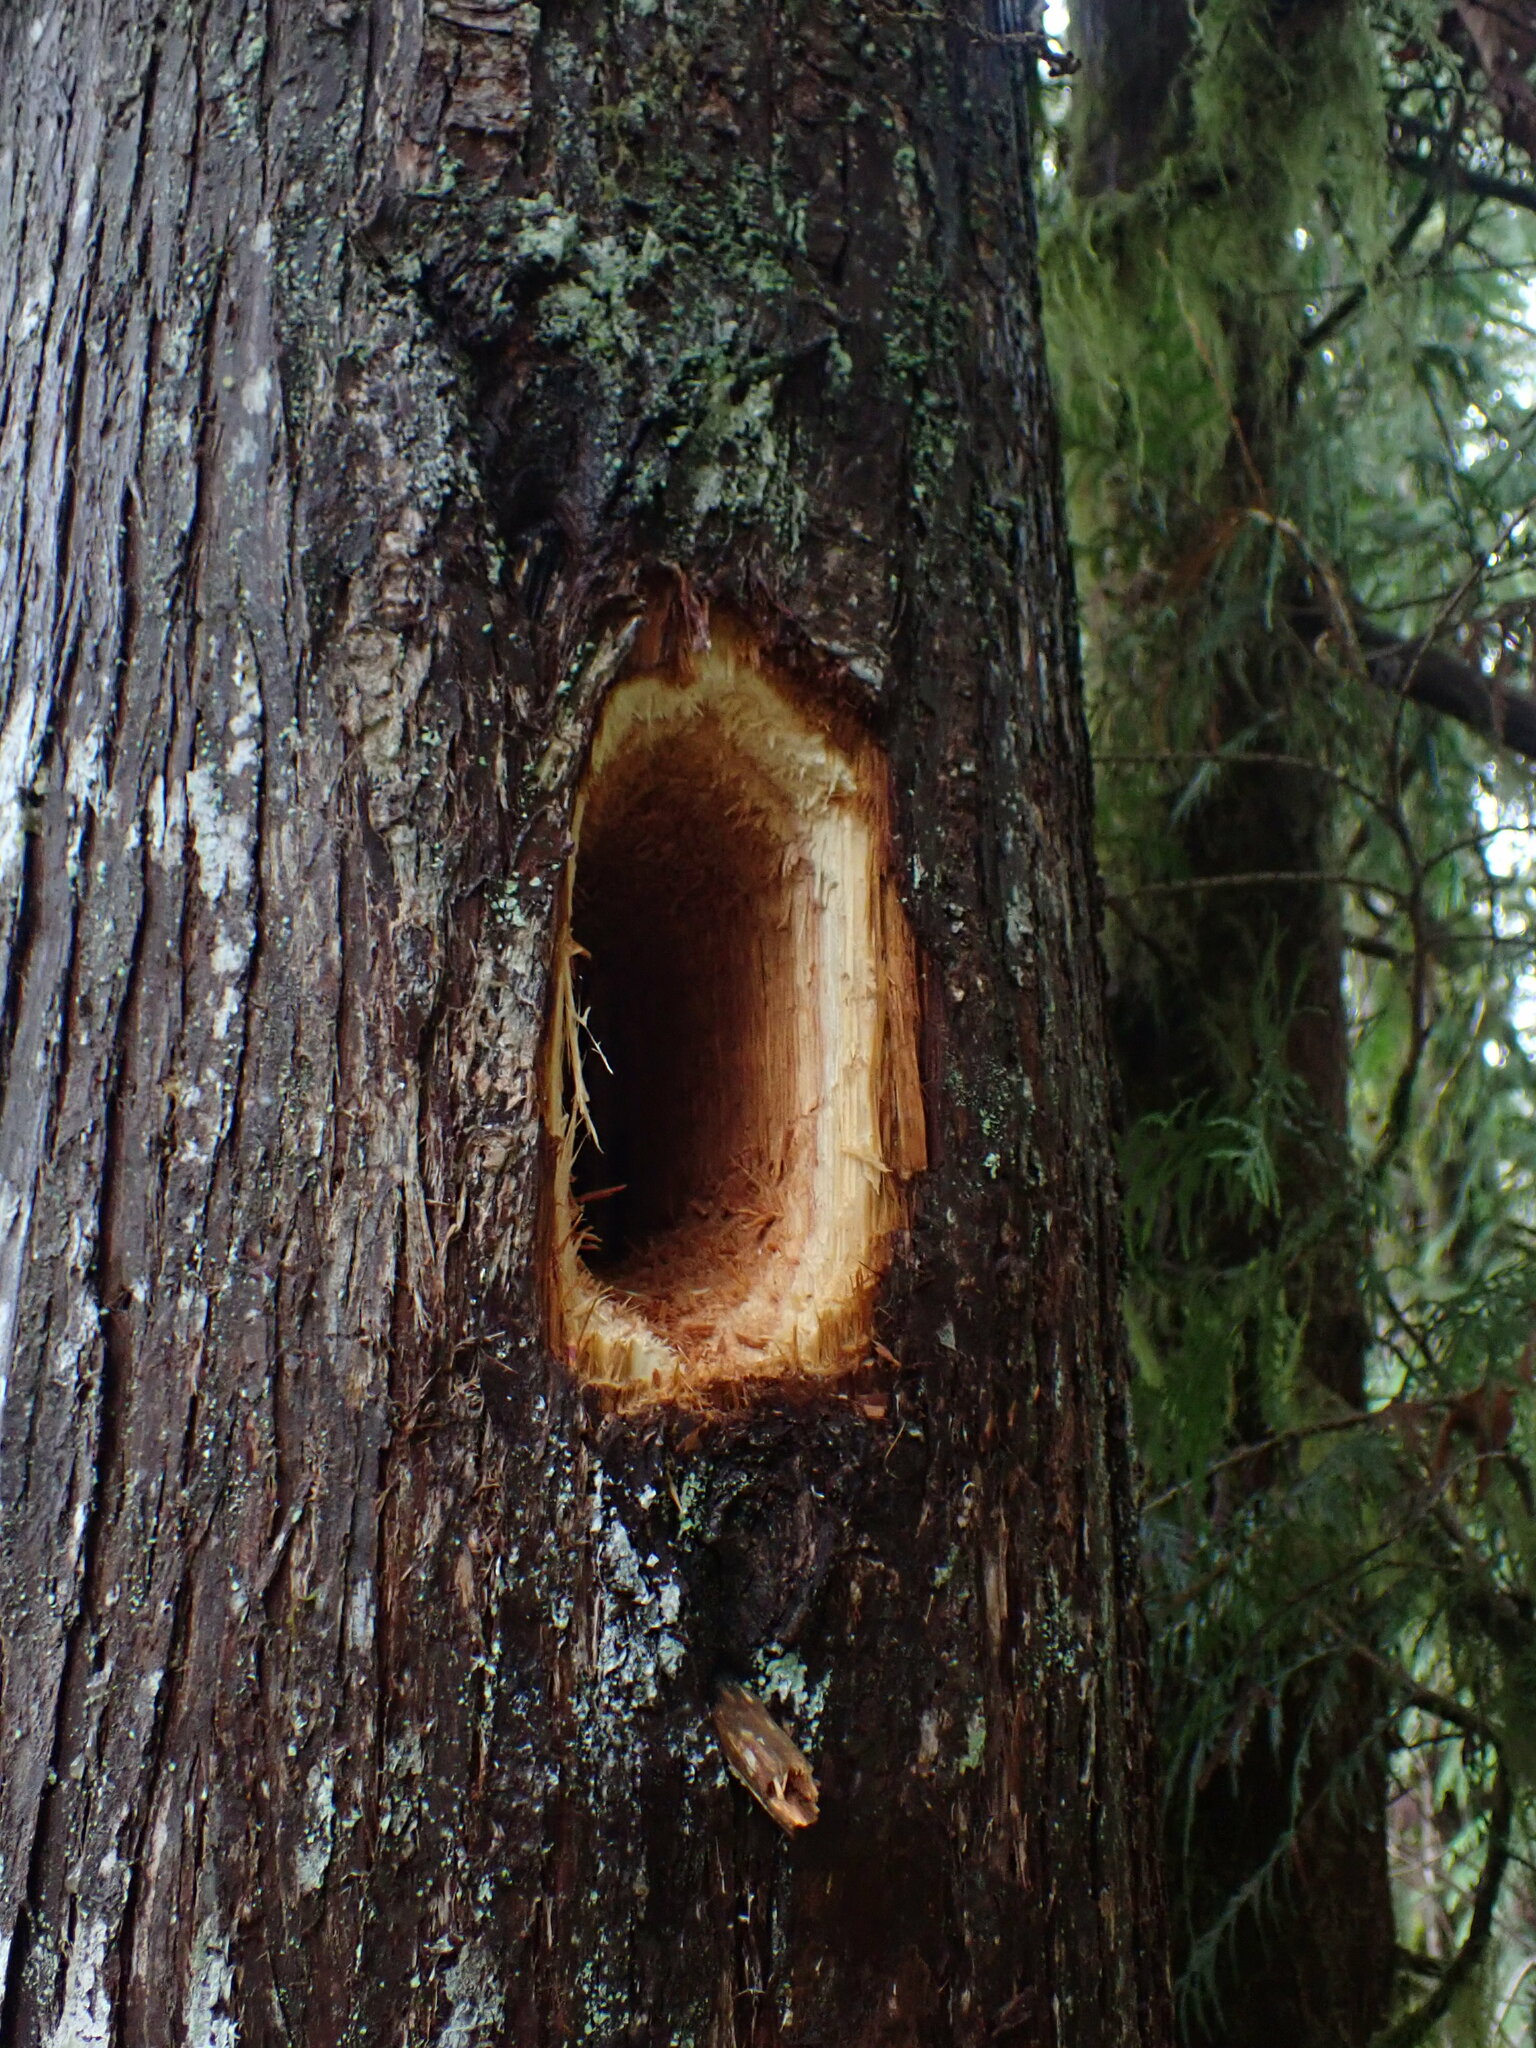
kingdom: Animalia
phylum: Chordata
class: Aves
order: Piciformes
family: Picidae
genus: Dryocopus
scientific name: Dryocopus pileatus
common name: Pileated woodpecker
